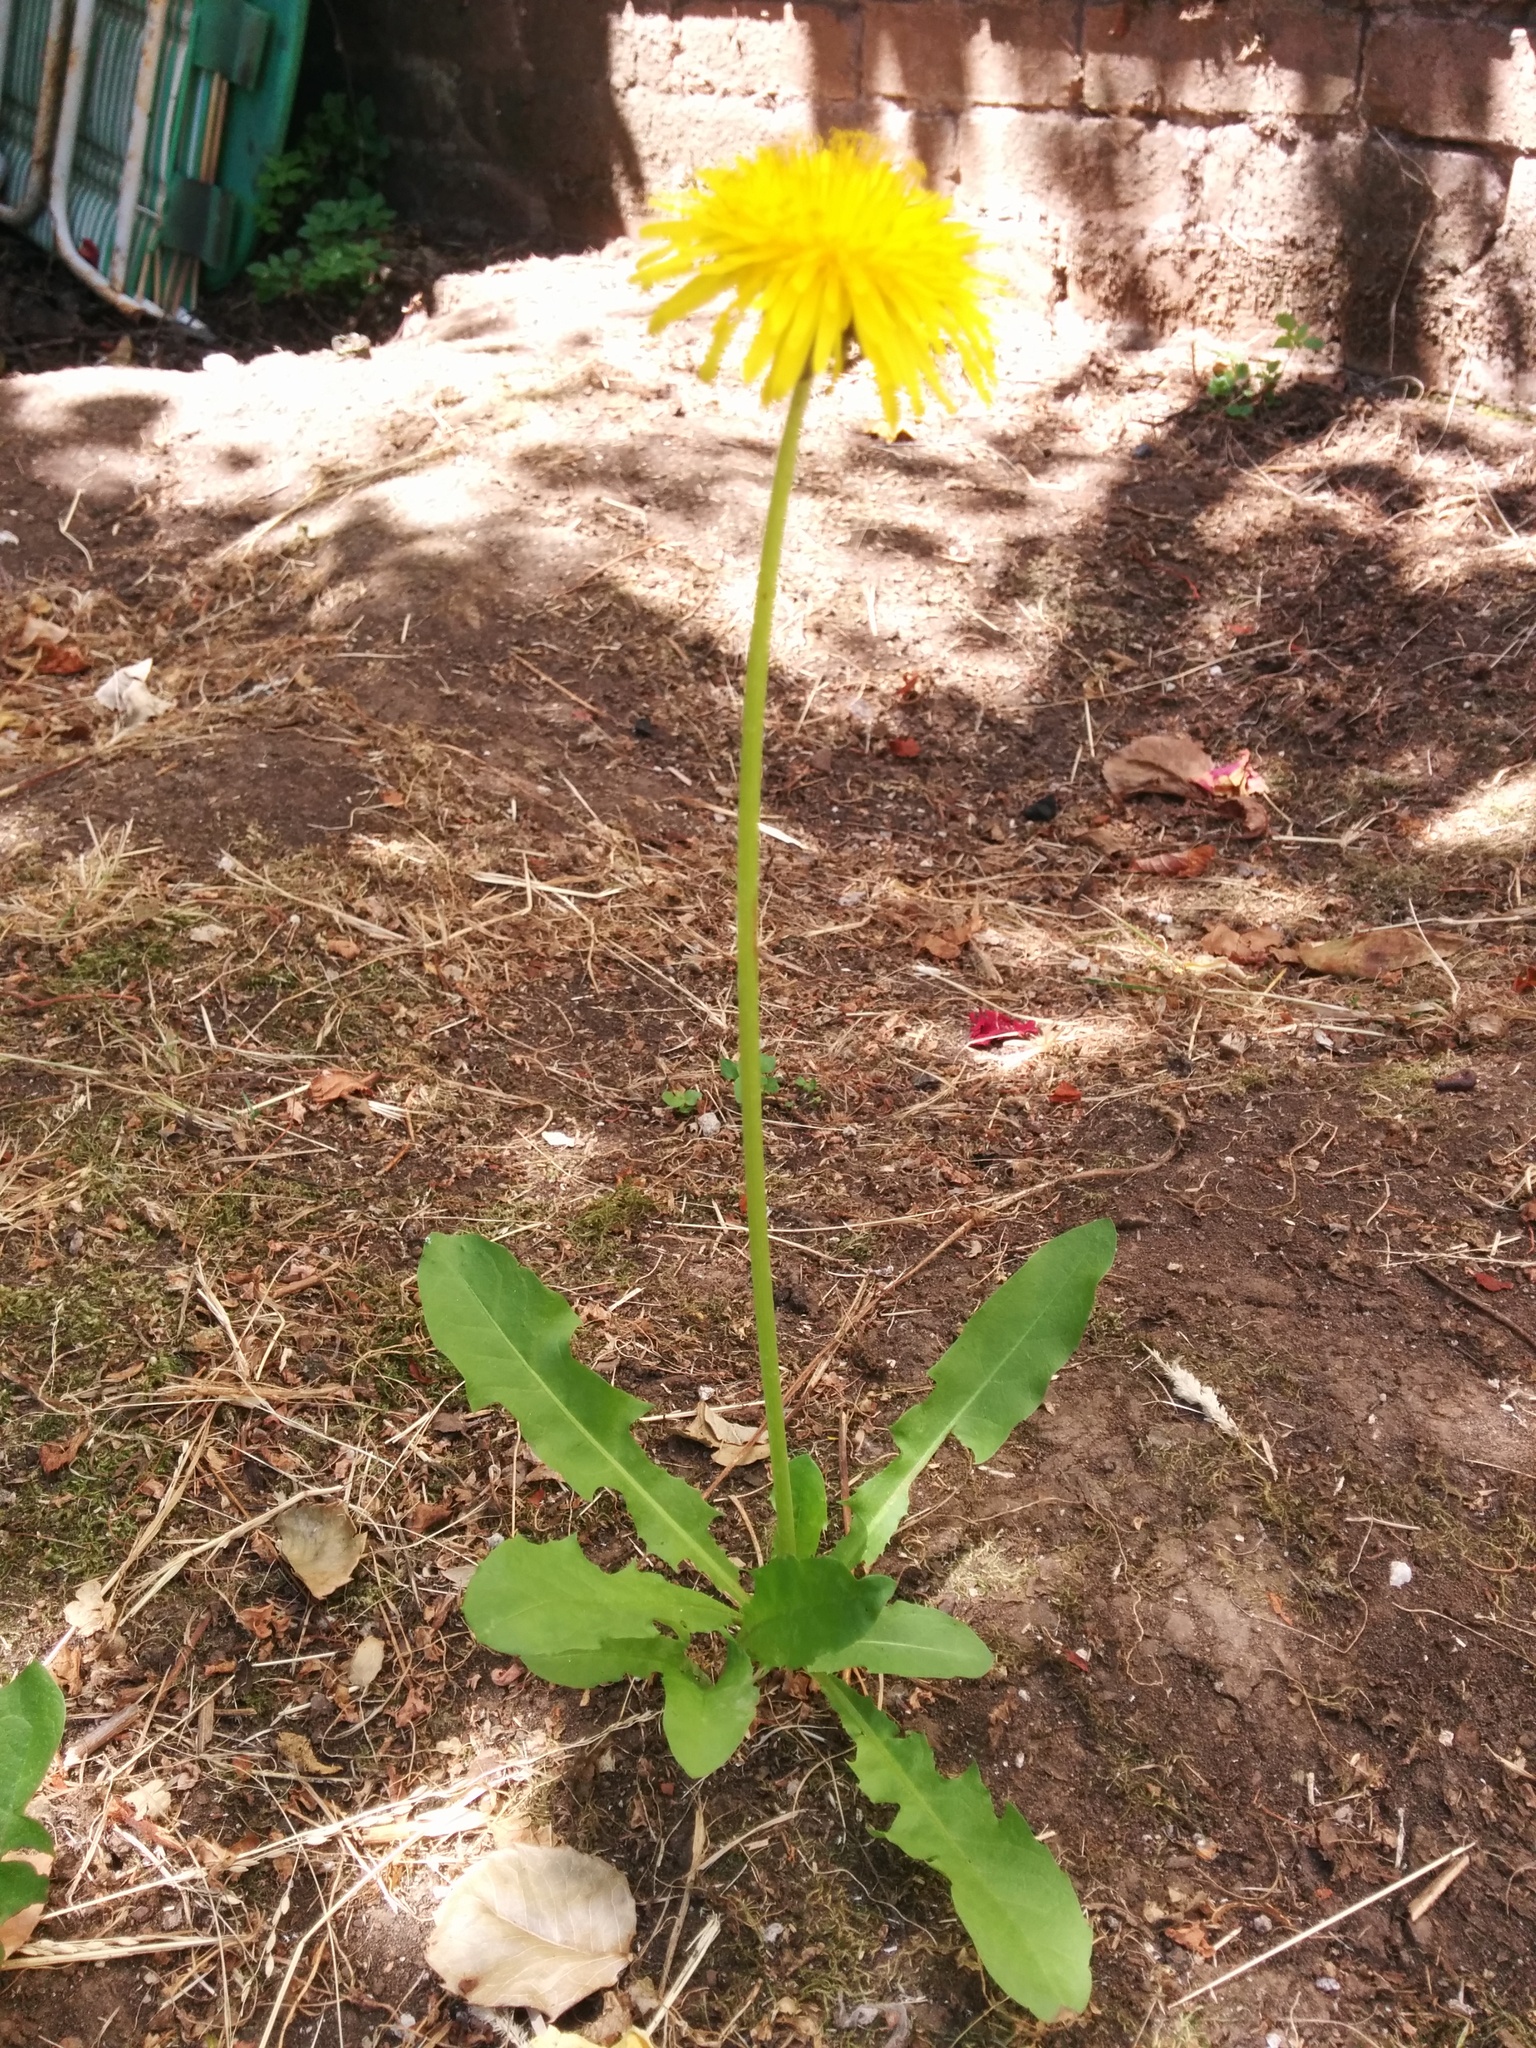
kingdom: Plantae
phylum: Tracheophyta
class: Magnoliopsida
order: Asterales
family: Asteraceae
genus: Taraxacum
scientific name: Taraxacum officinale
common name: Common dandelion
